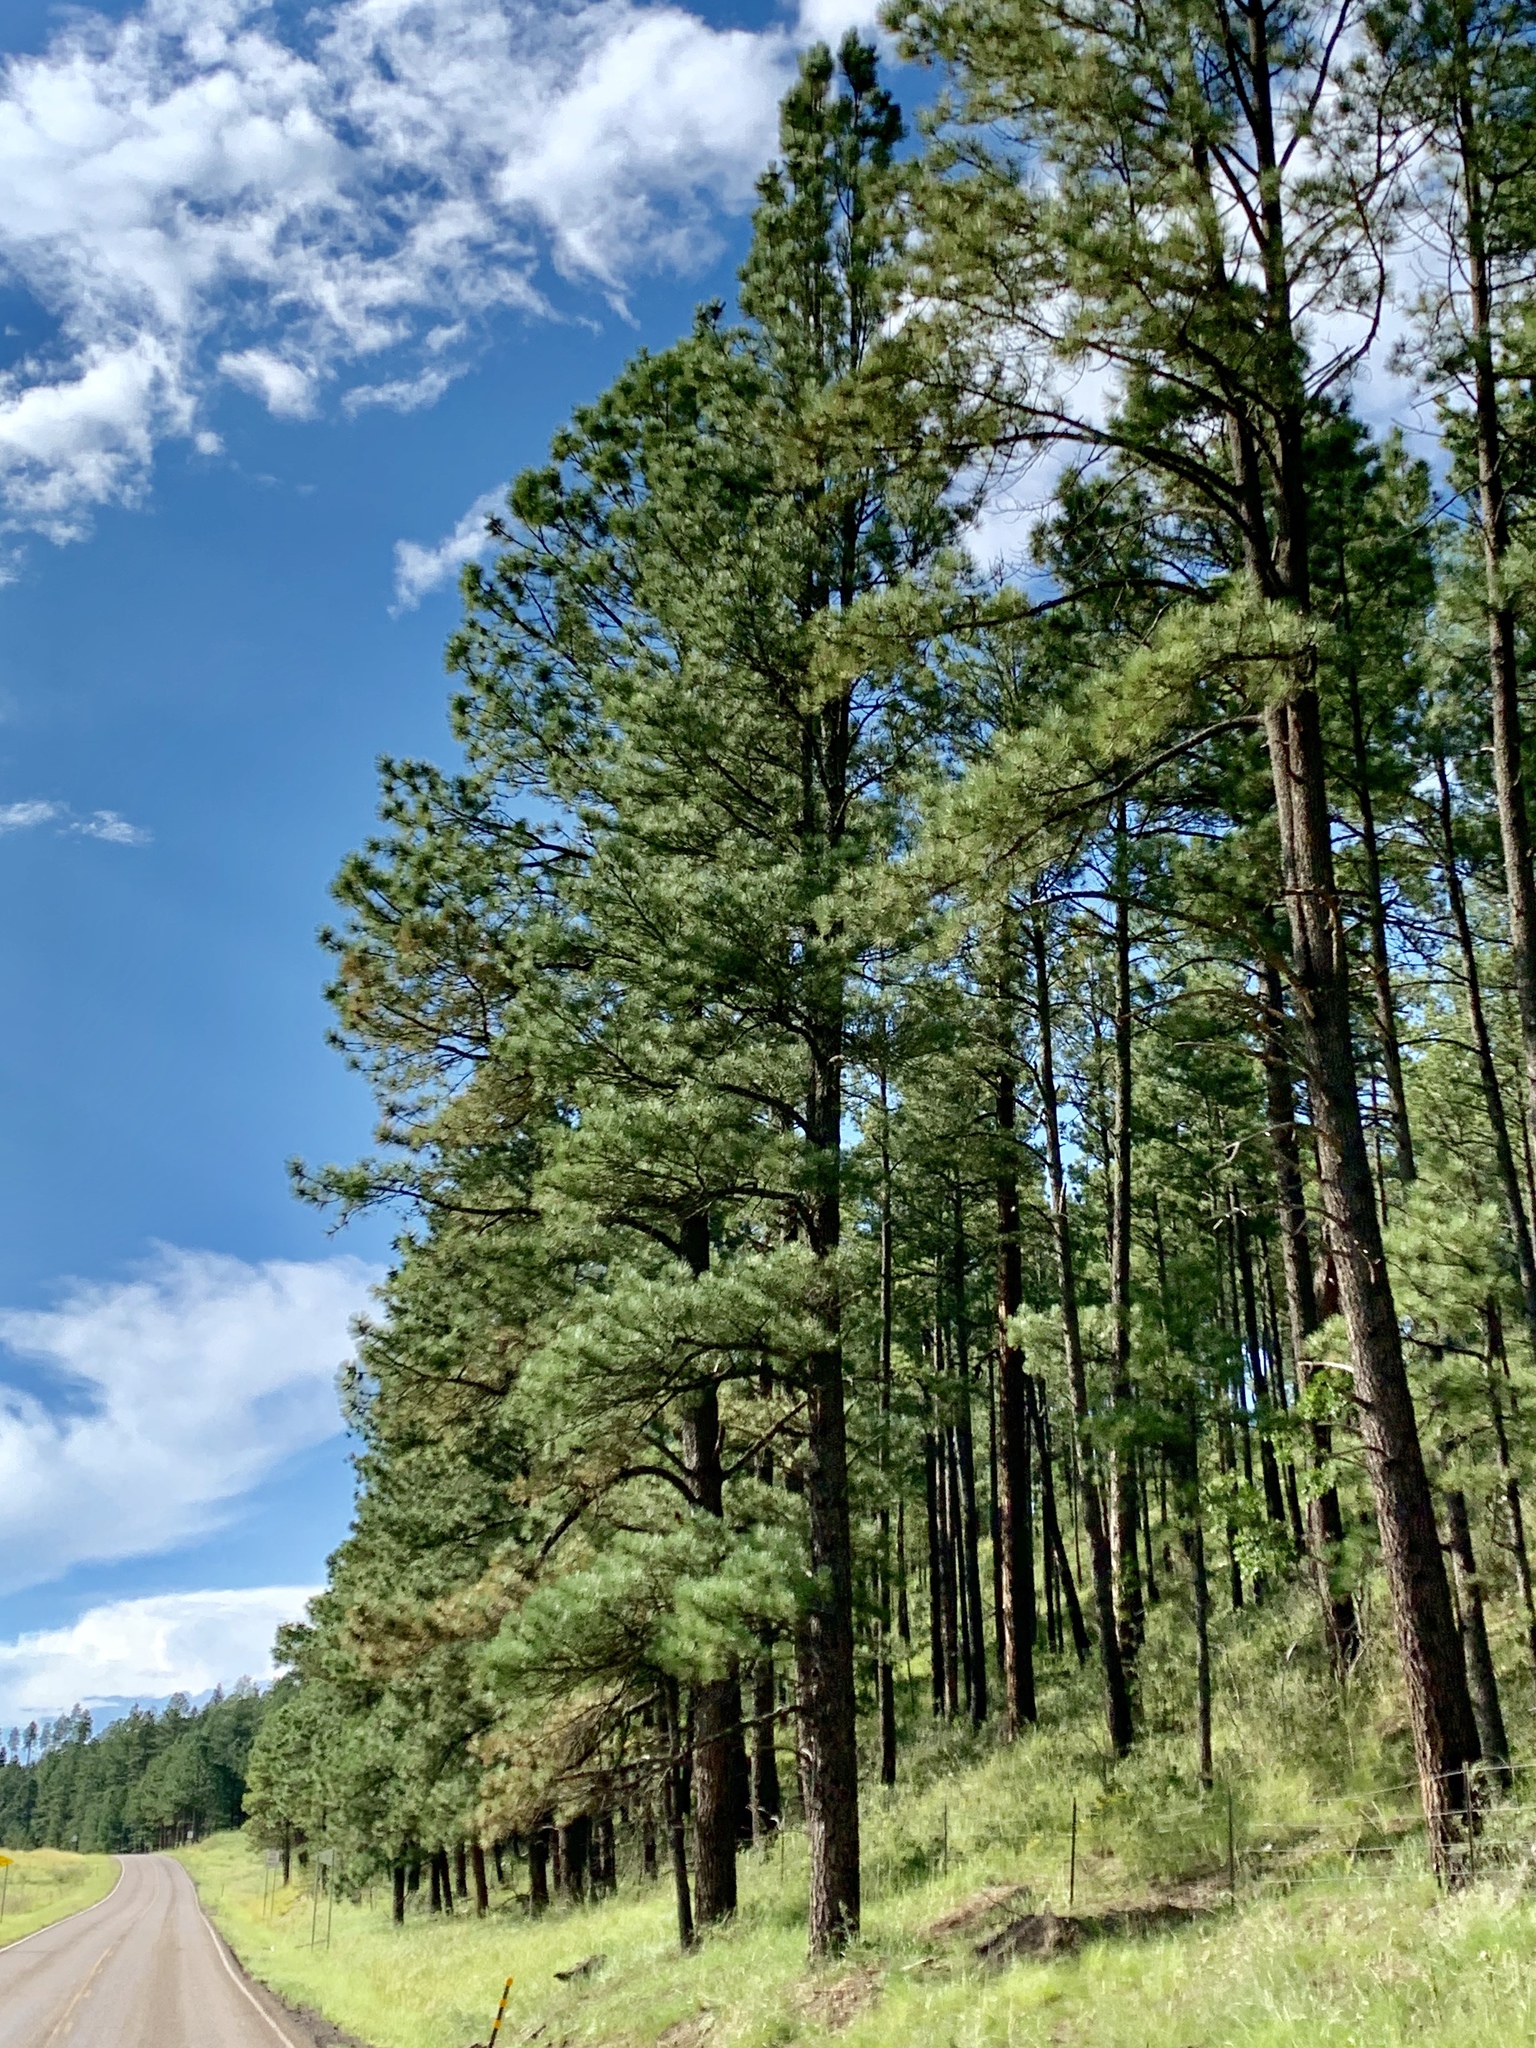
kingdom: Plantae
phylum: Tracheophyta
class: Pinopsida
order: Pinales
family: Pinaceae
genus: Pinus
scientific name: Pinus ponderosa
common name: Western yellow-pine
